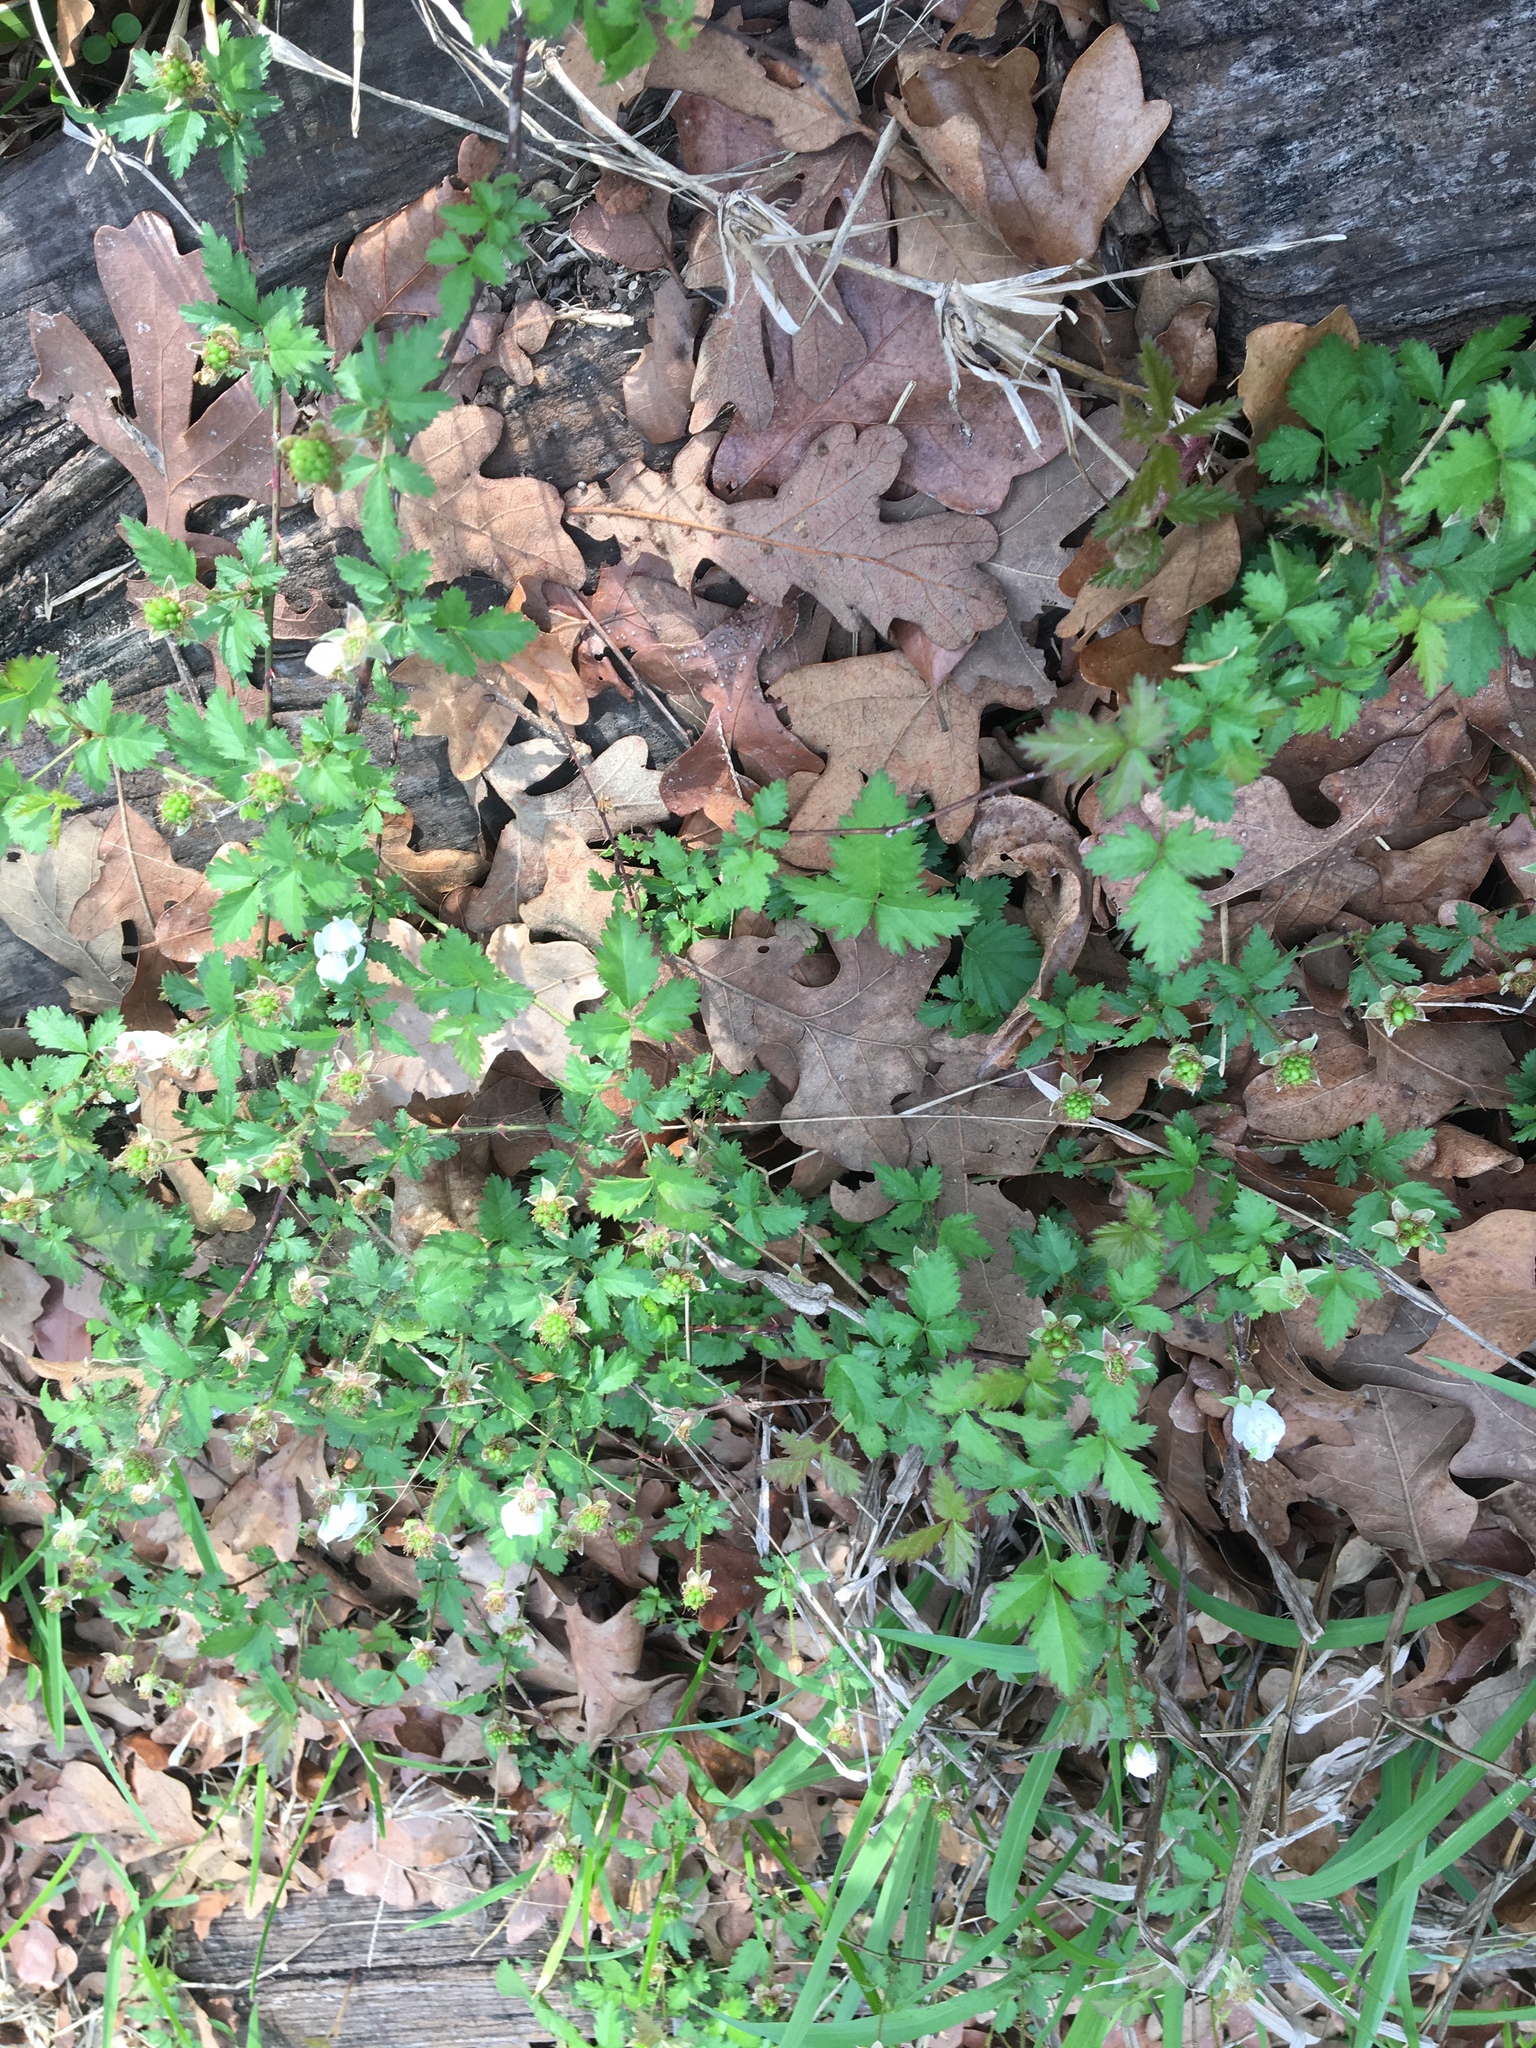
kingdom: Plantae
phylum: Tracheophyta
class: Magnoliopsida
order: Rosales
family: Rosaceae
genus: Rubus
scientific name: Rubus trivialis
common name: Southern dewberry
